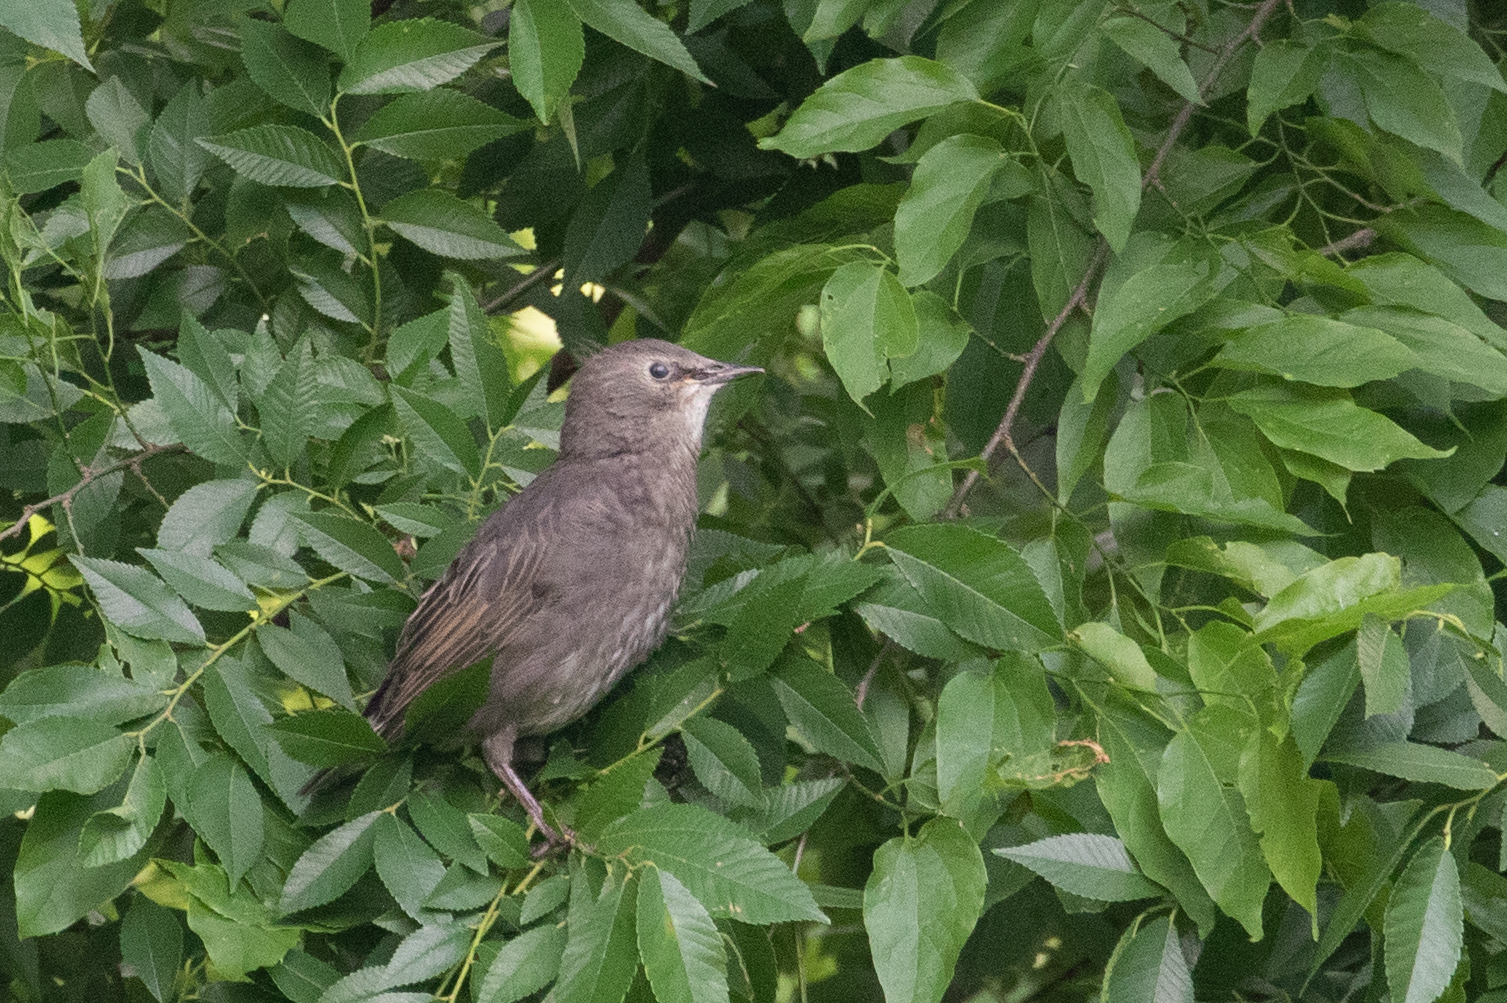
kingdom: Animalia
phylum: Chordata
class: Aves
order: Passeriformes
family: Sturnidae
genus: Sturnus
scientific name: Sturnus vulgaris
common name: Common starling
